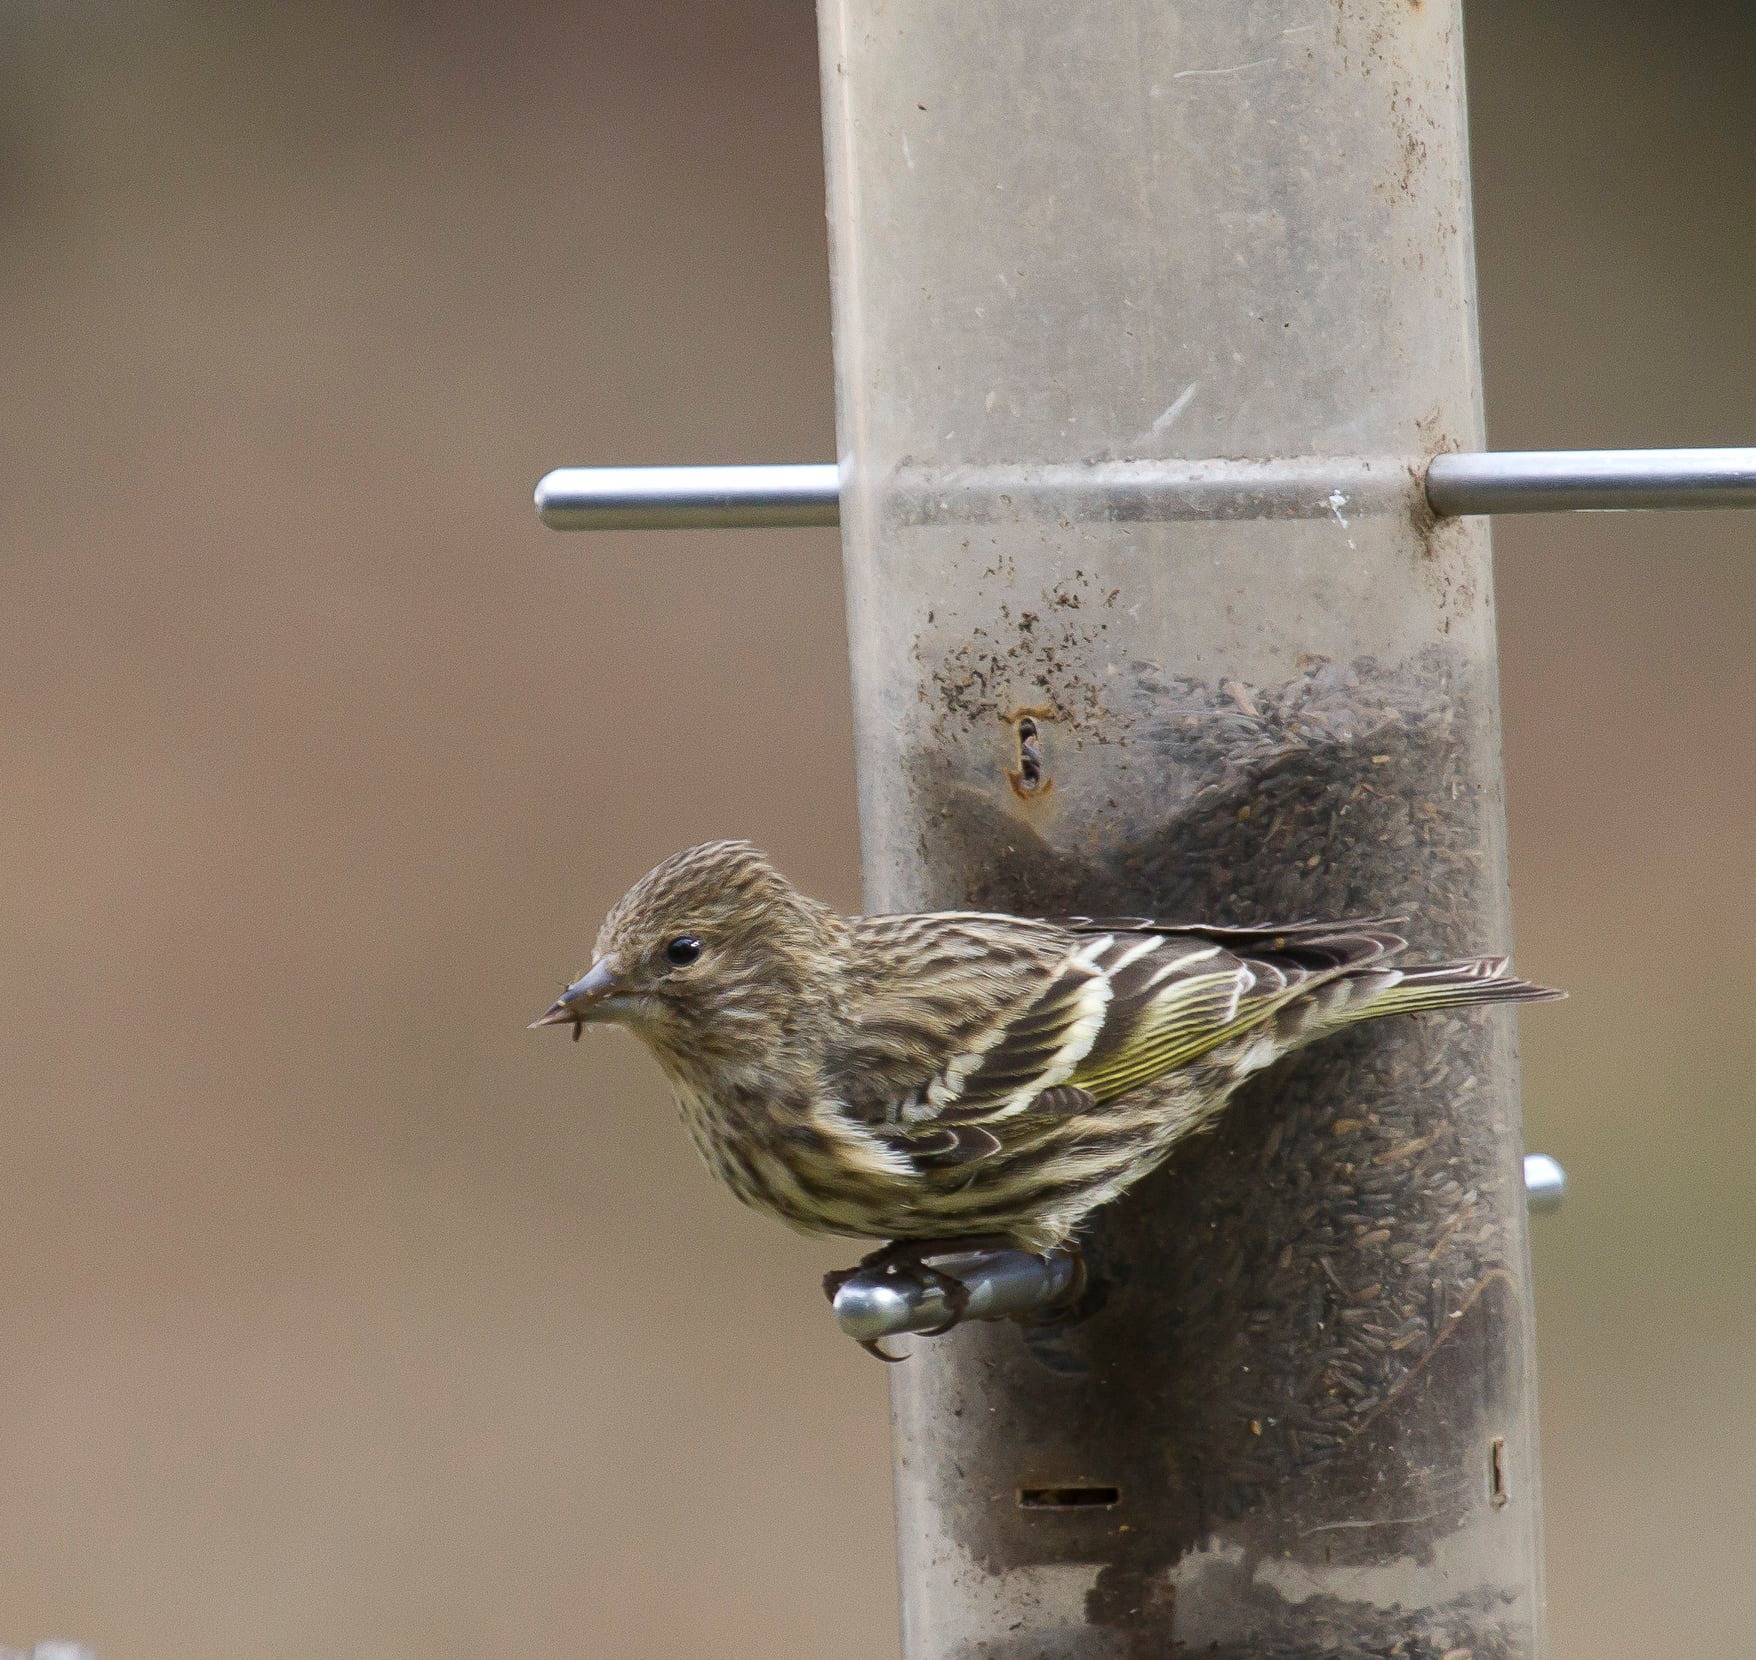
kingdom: Animalia
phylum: Chordata
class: Aves
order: Passeriformes
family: Fringillidae
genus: Spinus
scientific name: Spinus pinus
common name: Pine siskin
